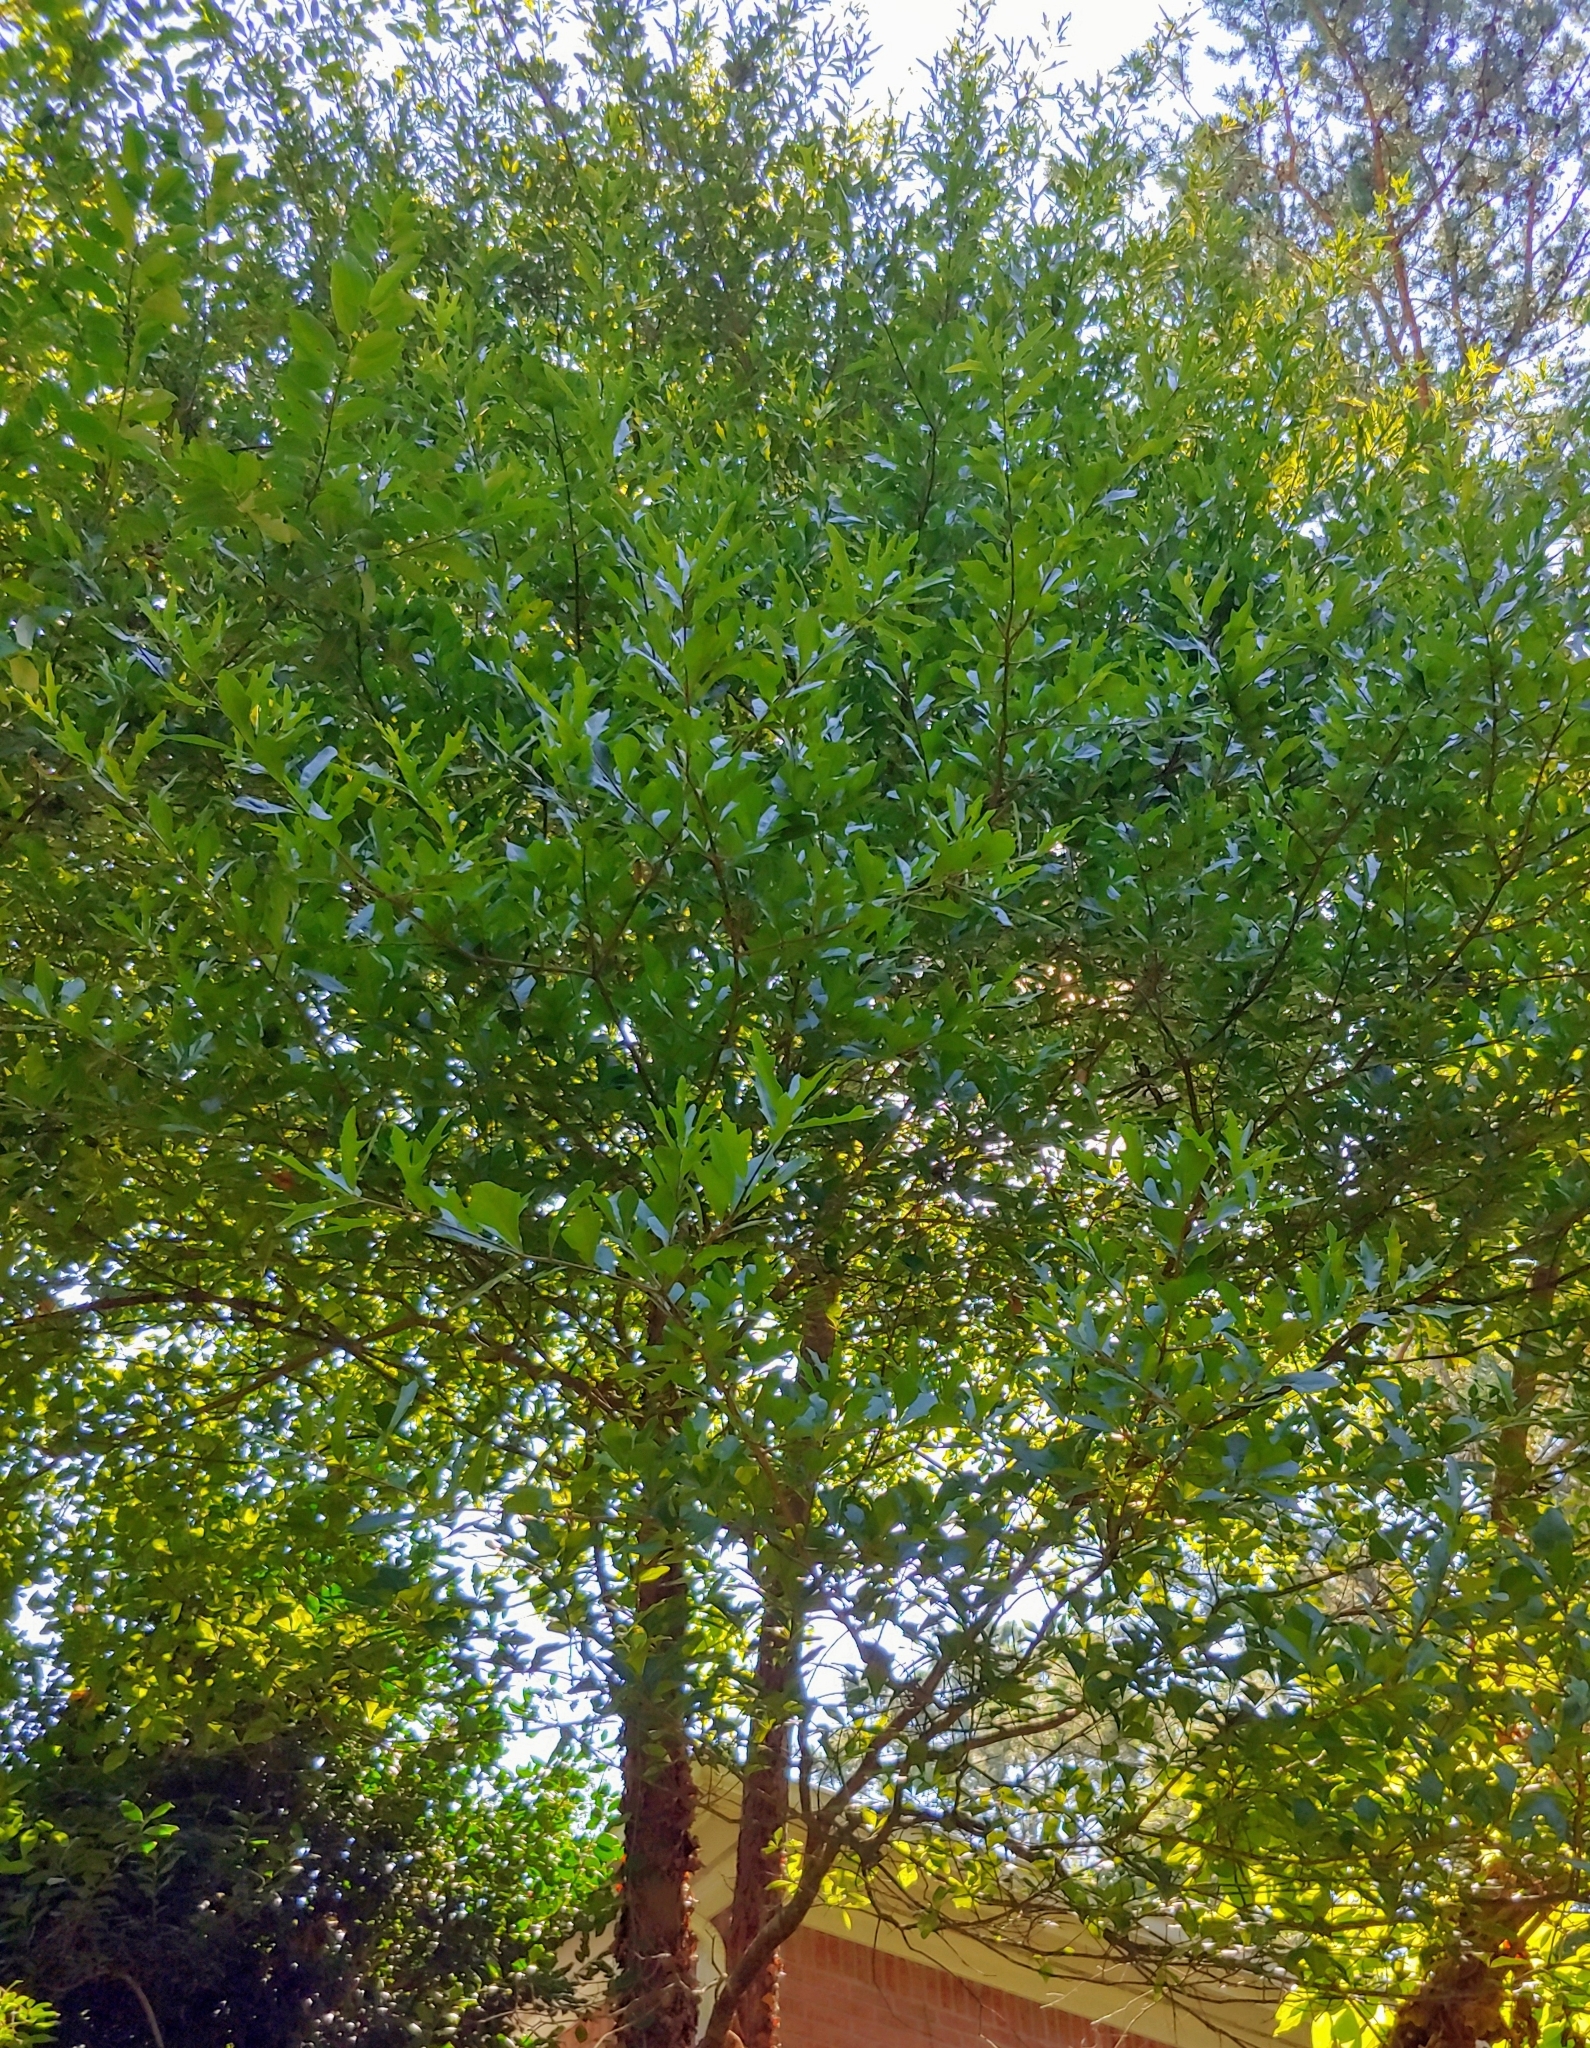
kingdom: Plantae
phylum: Tracheophyta
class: Magnoliopsida
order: Fagales
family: Fagaceae
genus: Quercus
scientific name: Quercus nigra
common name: Water oak
